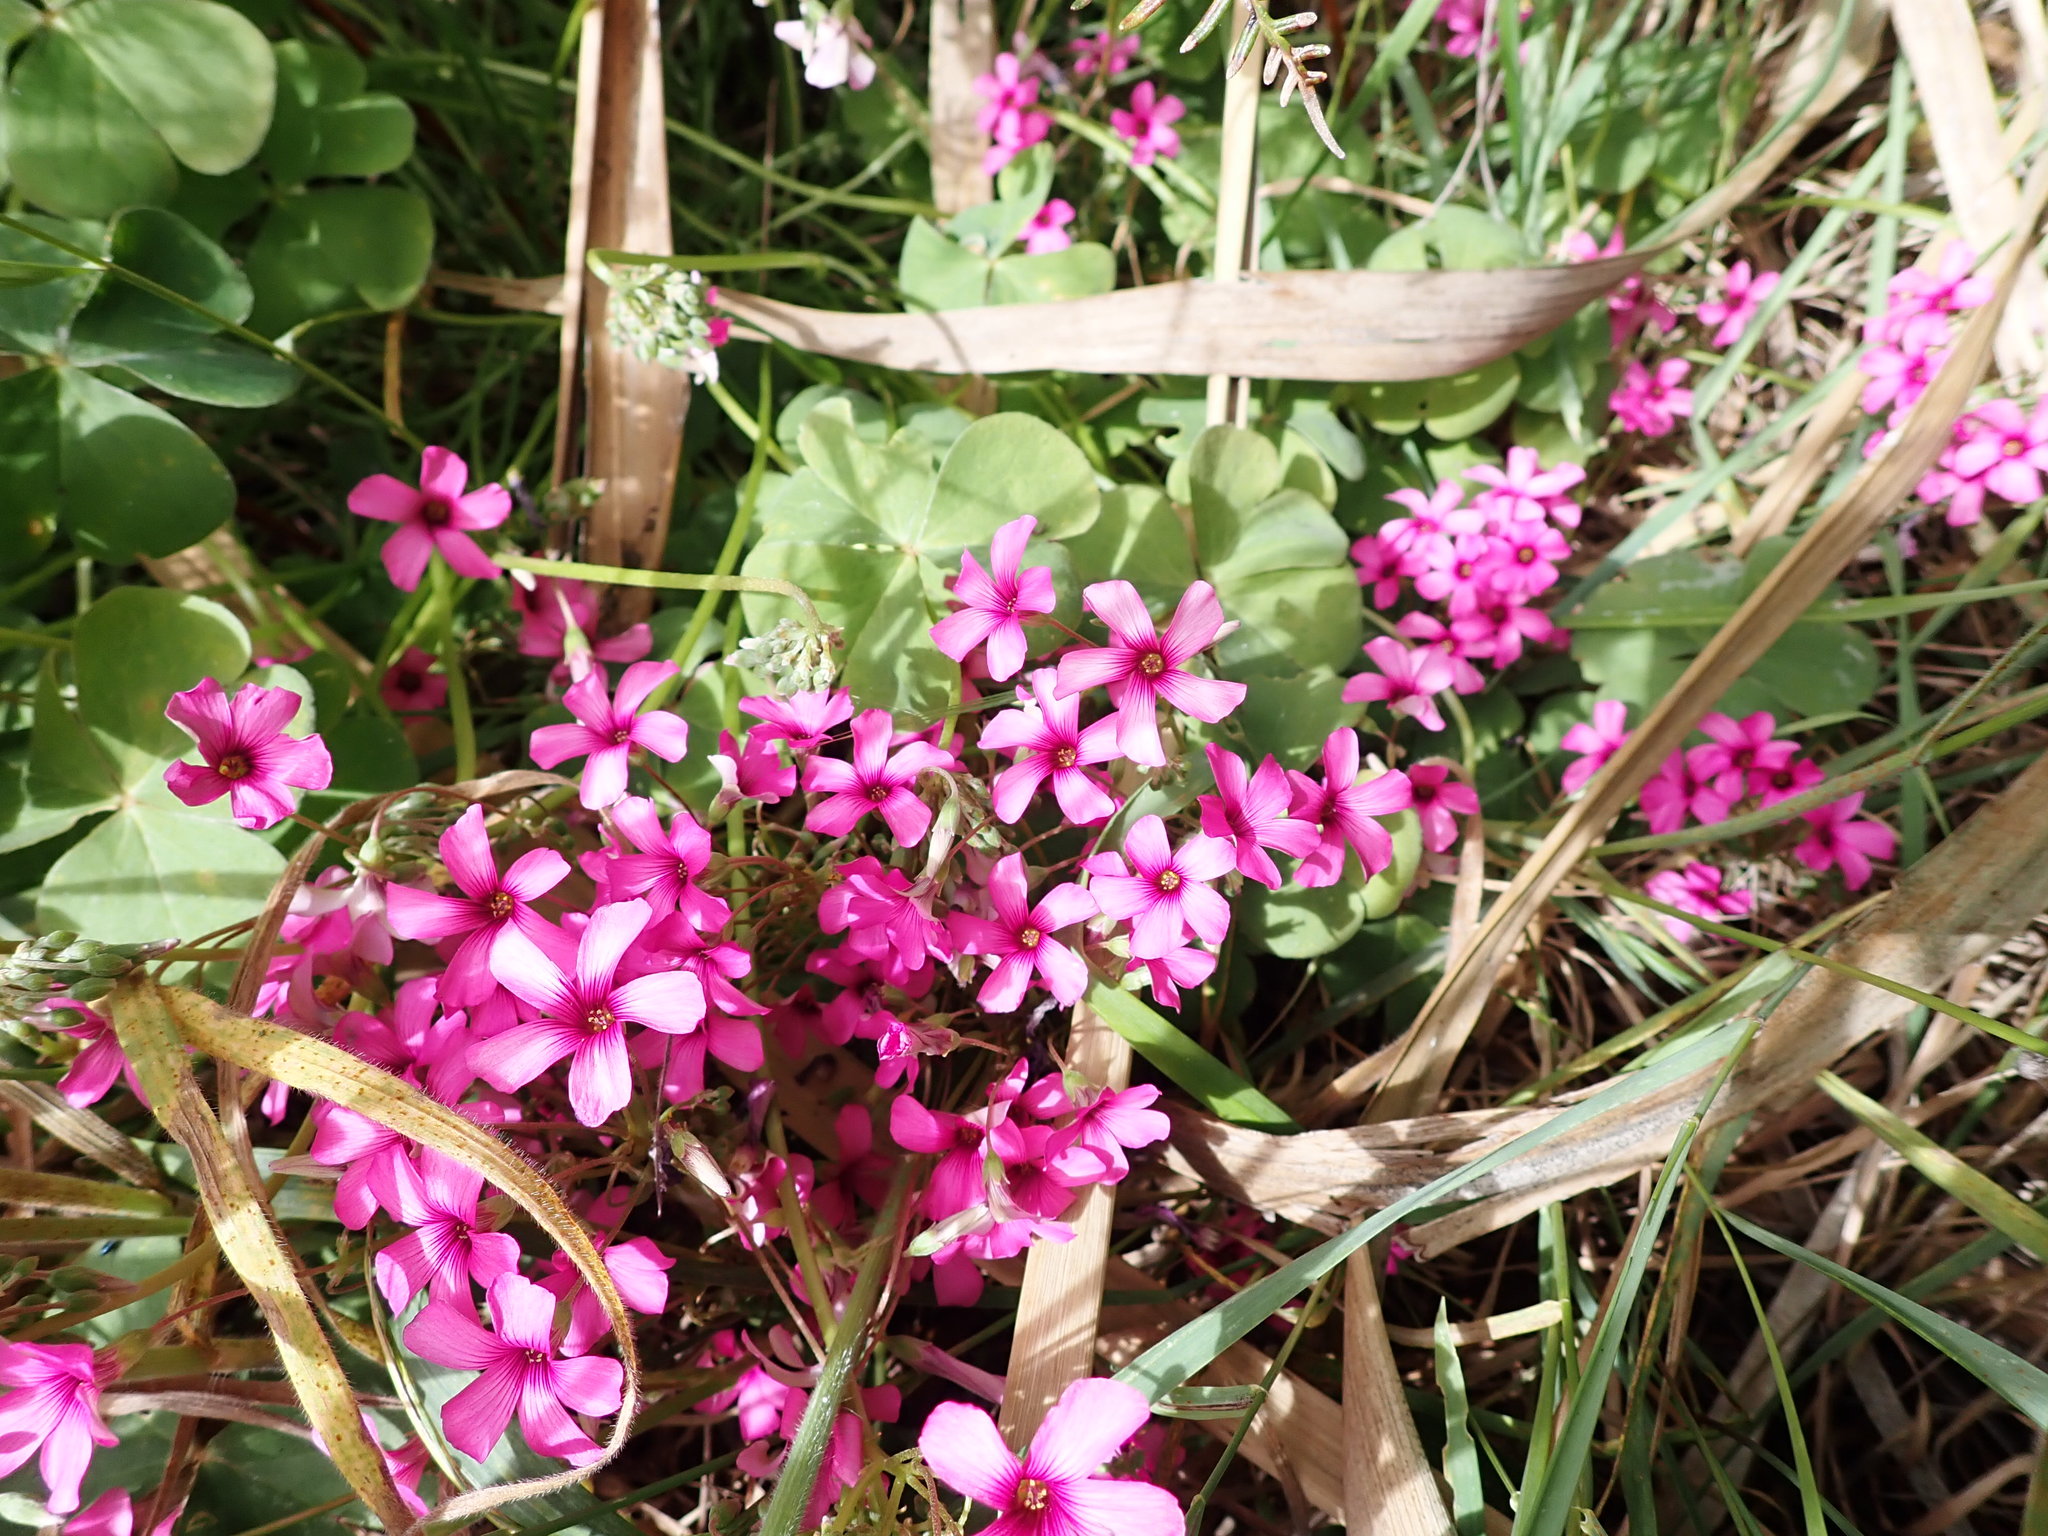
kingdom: Plantae
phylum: Tracheophyta
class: Magnoliopsida
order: Oxalidales
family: Oxalidaceae
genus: Oxalis
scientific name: Oxalis articulata
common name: Pink-sorrel
